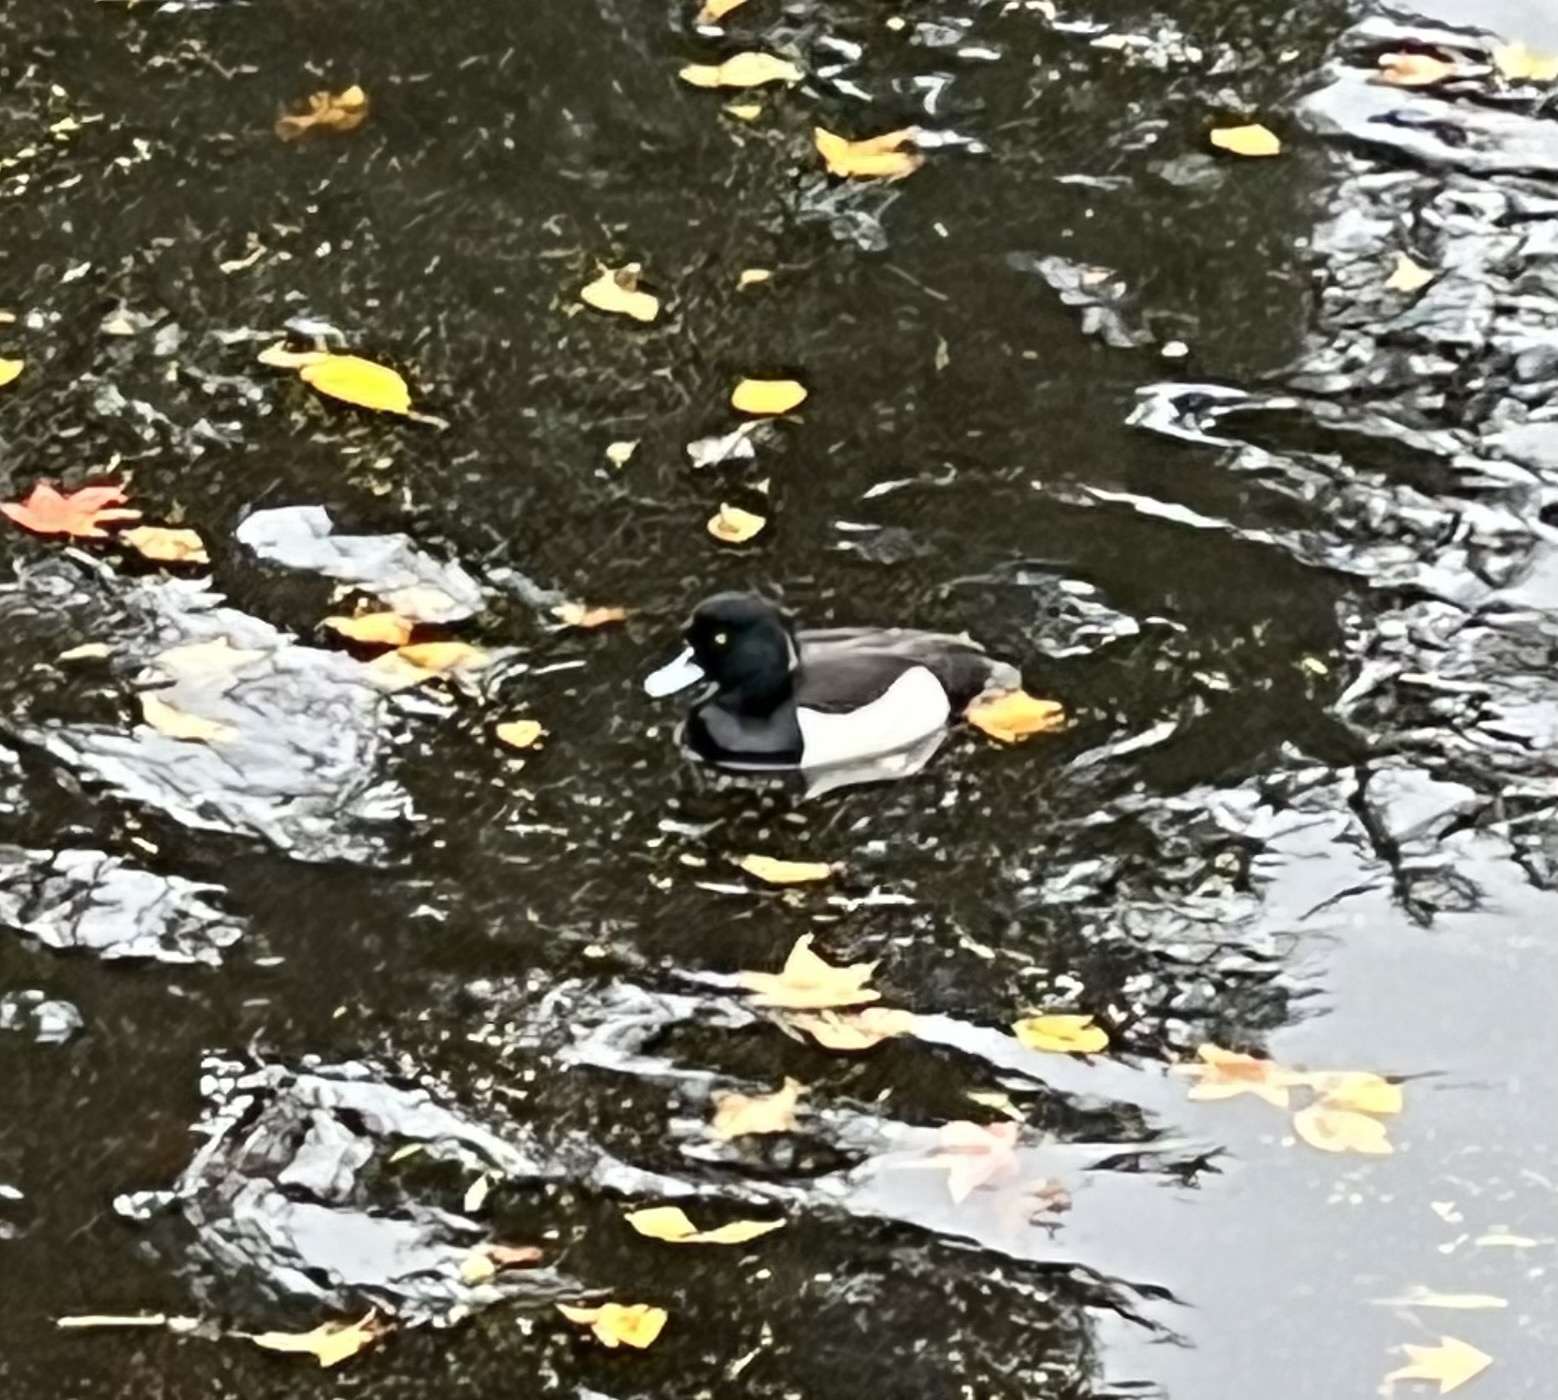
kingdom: Animalia
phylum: Chordata
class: Aves
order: Anseriformes
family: Anatidae
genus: Aythya
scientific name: Aythya fuligula
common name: Tufted duck
